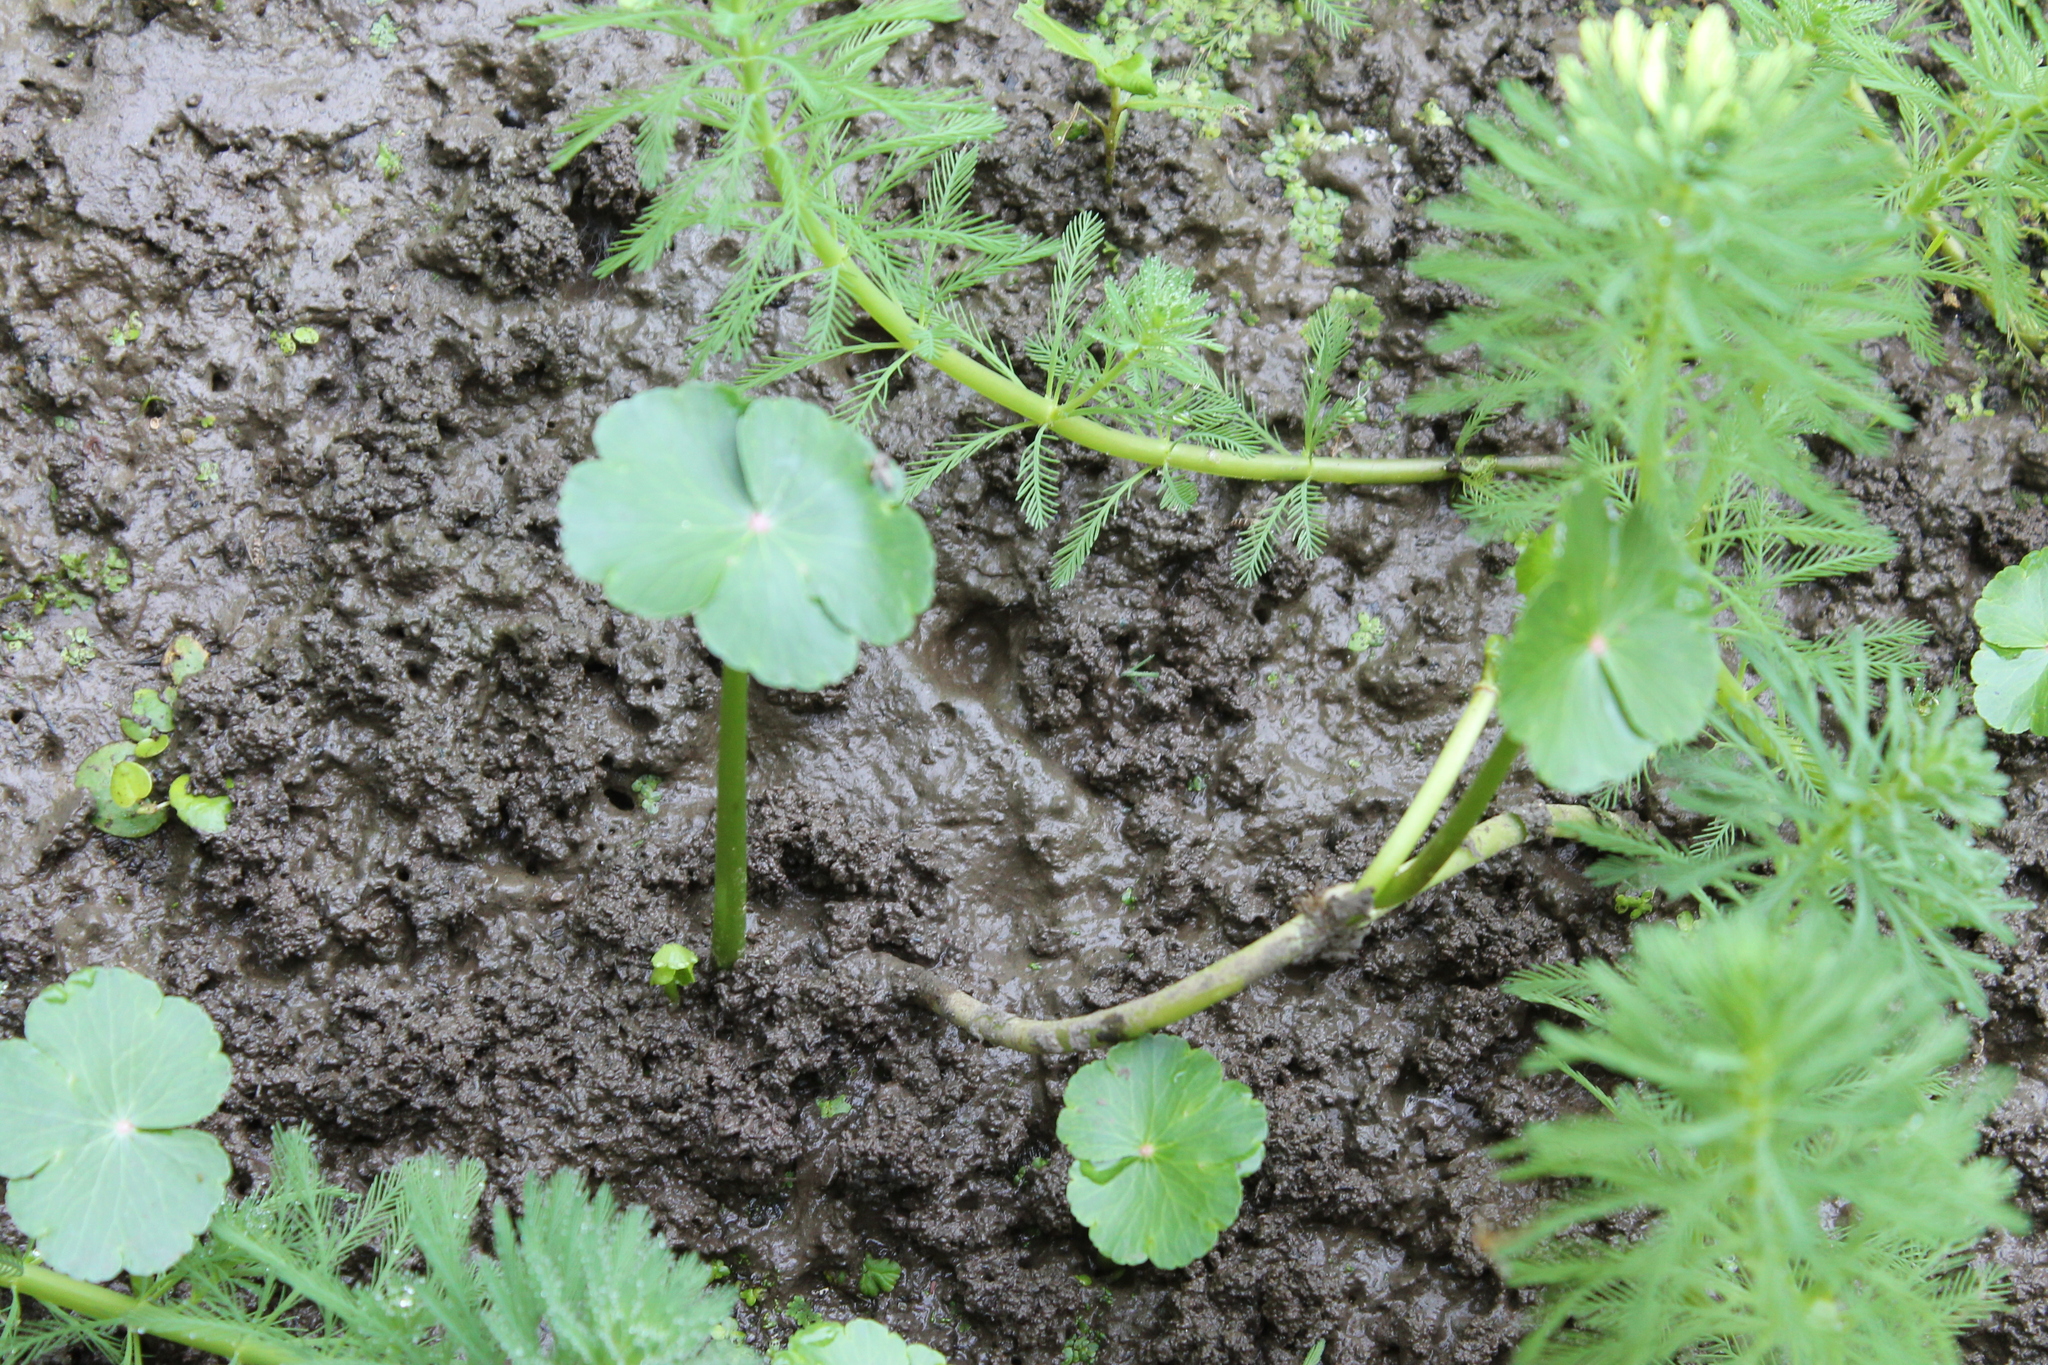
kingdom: Plantae
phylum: Tracheophyta
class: Magnoliopsida
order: Apiales
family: Araliaceae
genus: Hydrocotyle
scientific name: Hydrocotyle ranunculoides
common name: Floating pennywort
